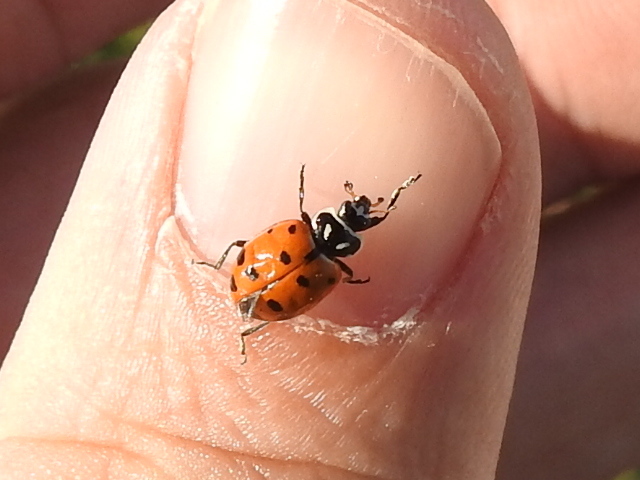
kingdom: Animalia
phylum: Arthropoda
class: Insecta
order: Coleoptera
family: Coccinellidae
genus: Hippodamia
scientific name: Hippodamia convergens
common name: Convergent lady beetle
